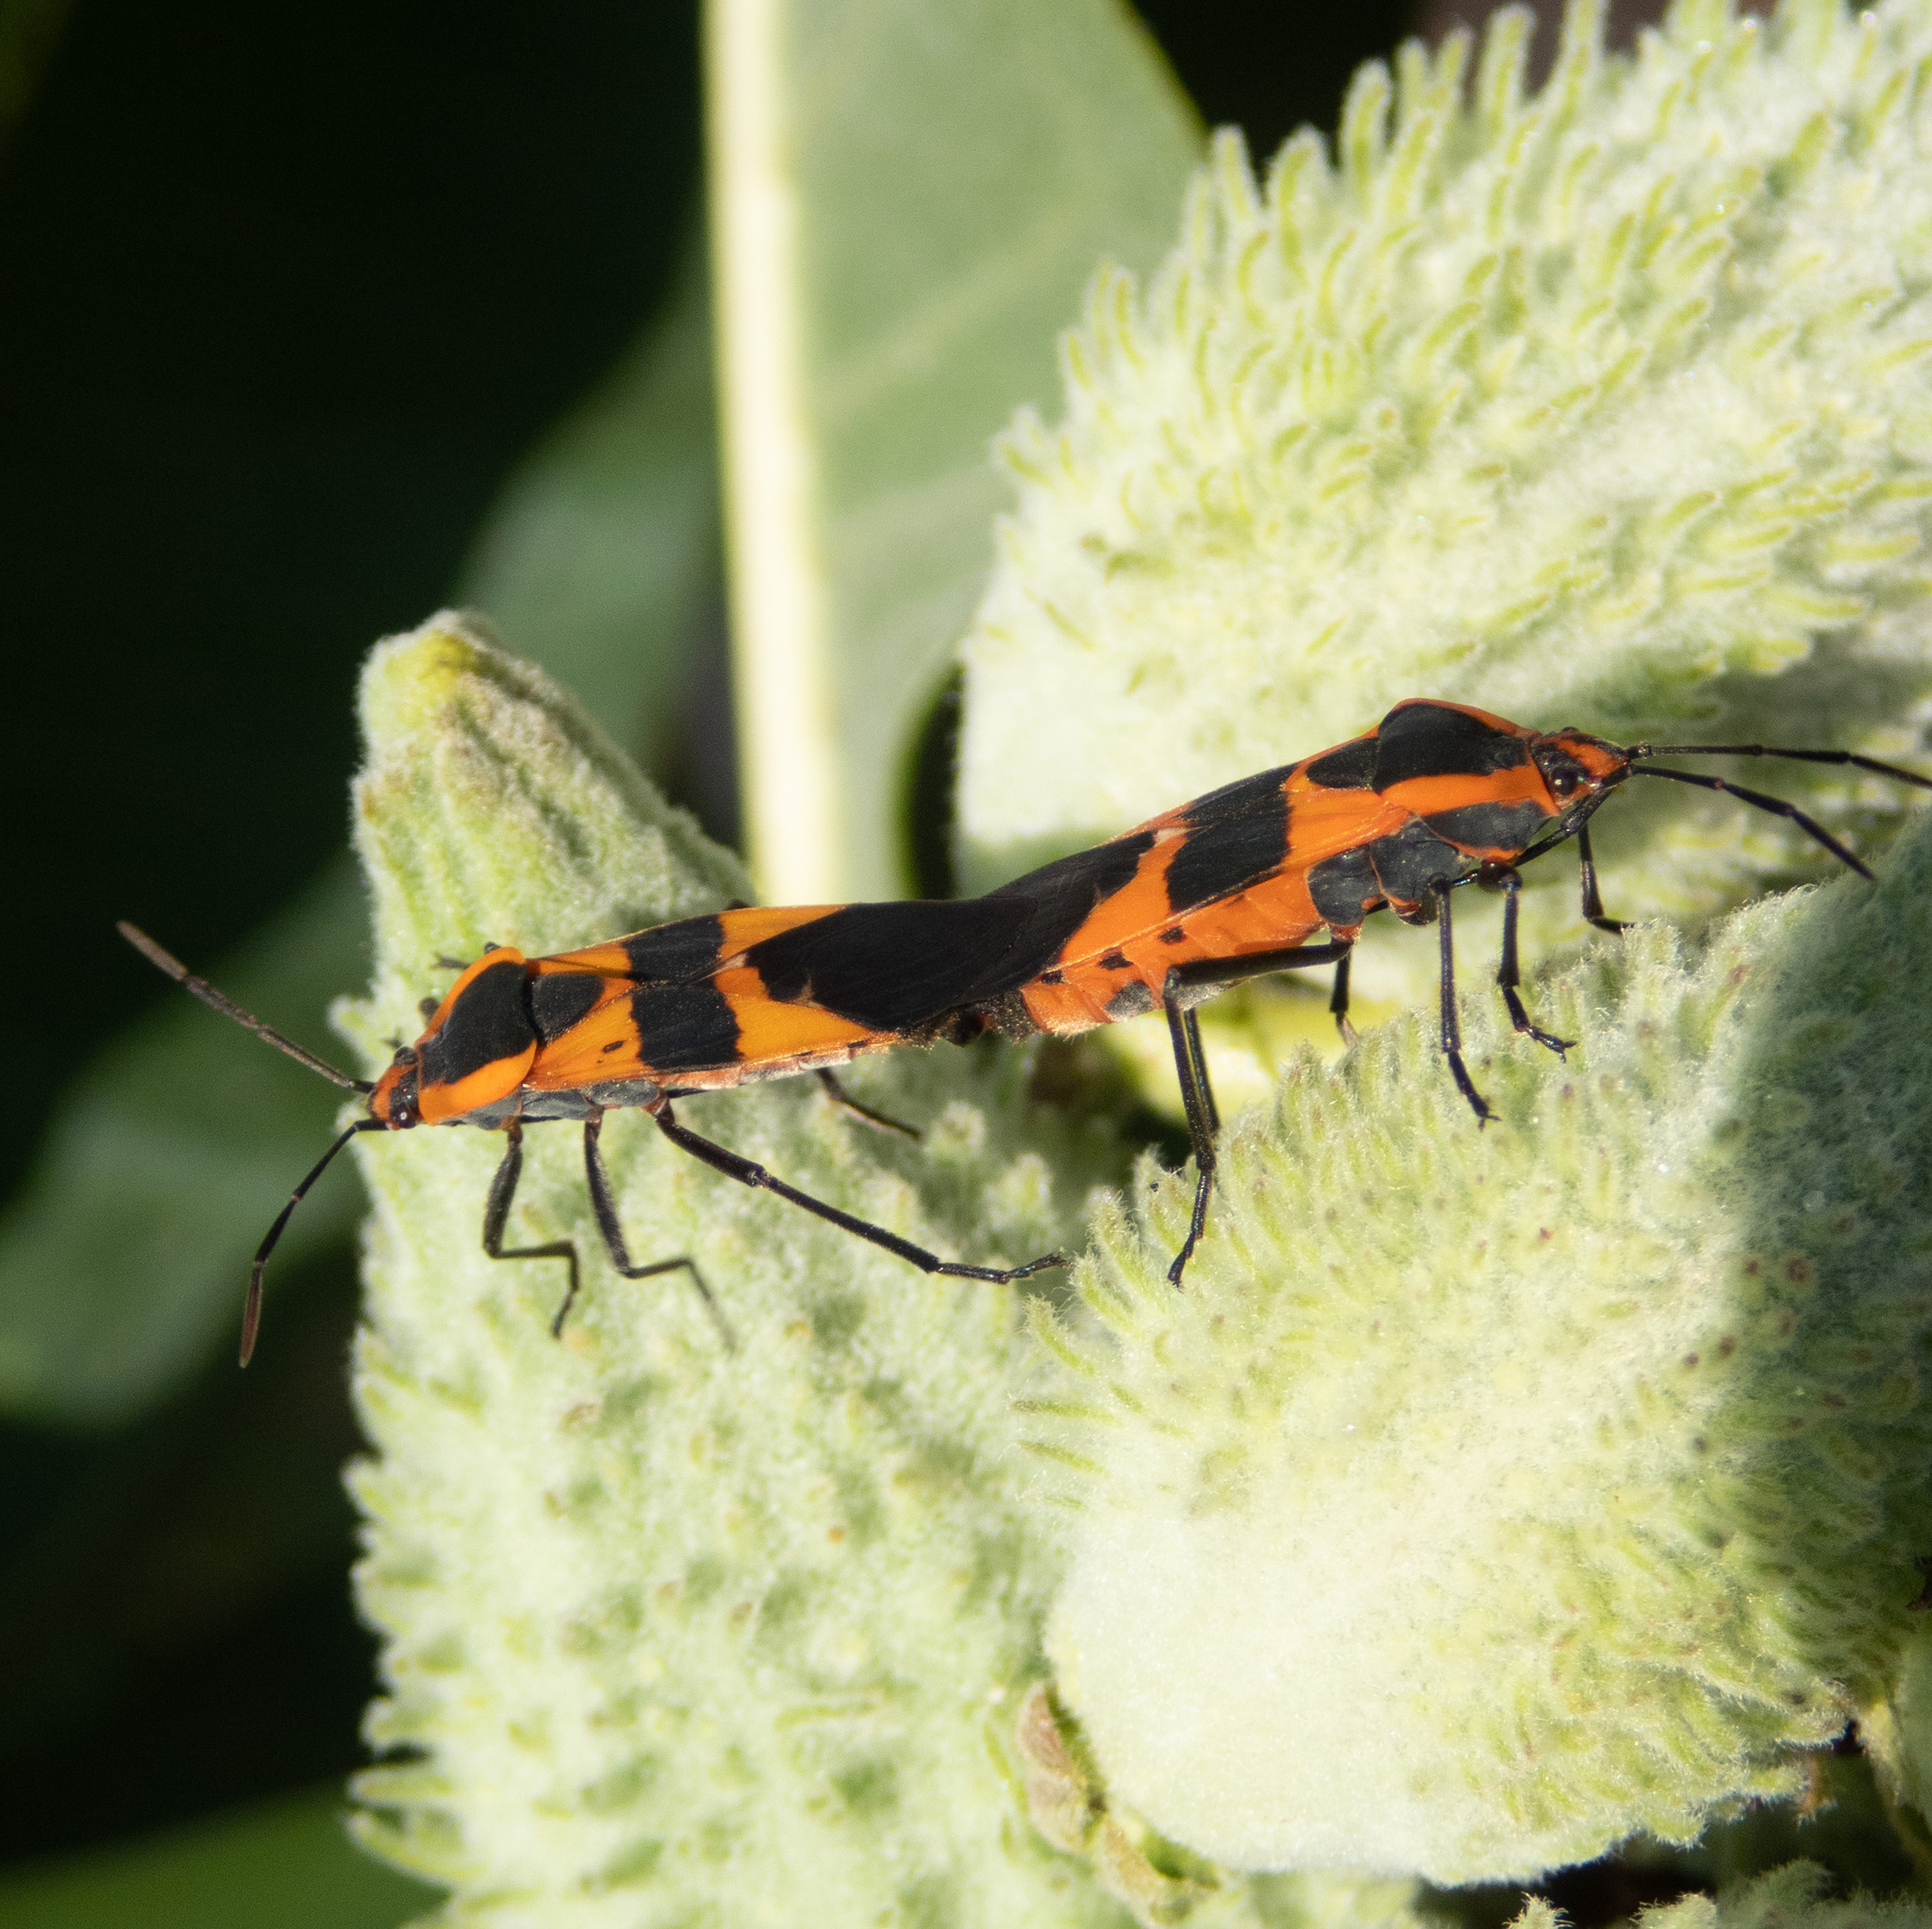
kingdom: Animalia
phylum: Arthropoda
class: Insecta
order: Hemiptera
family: Lygaeidae
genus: Oncopeltus
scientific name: Oncopeltus fasciatus
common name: Large milkweed bug
